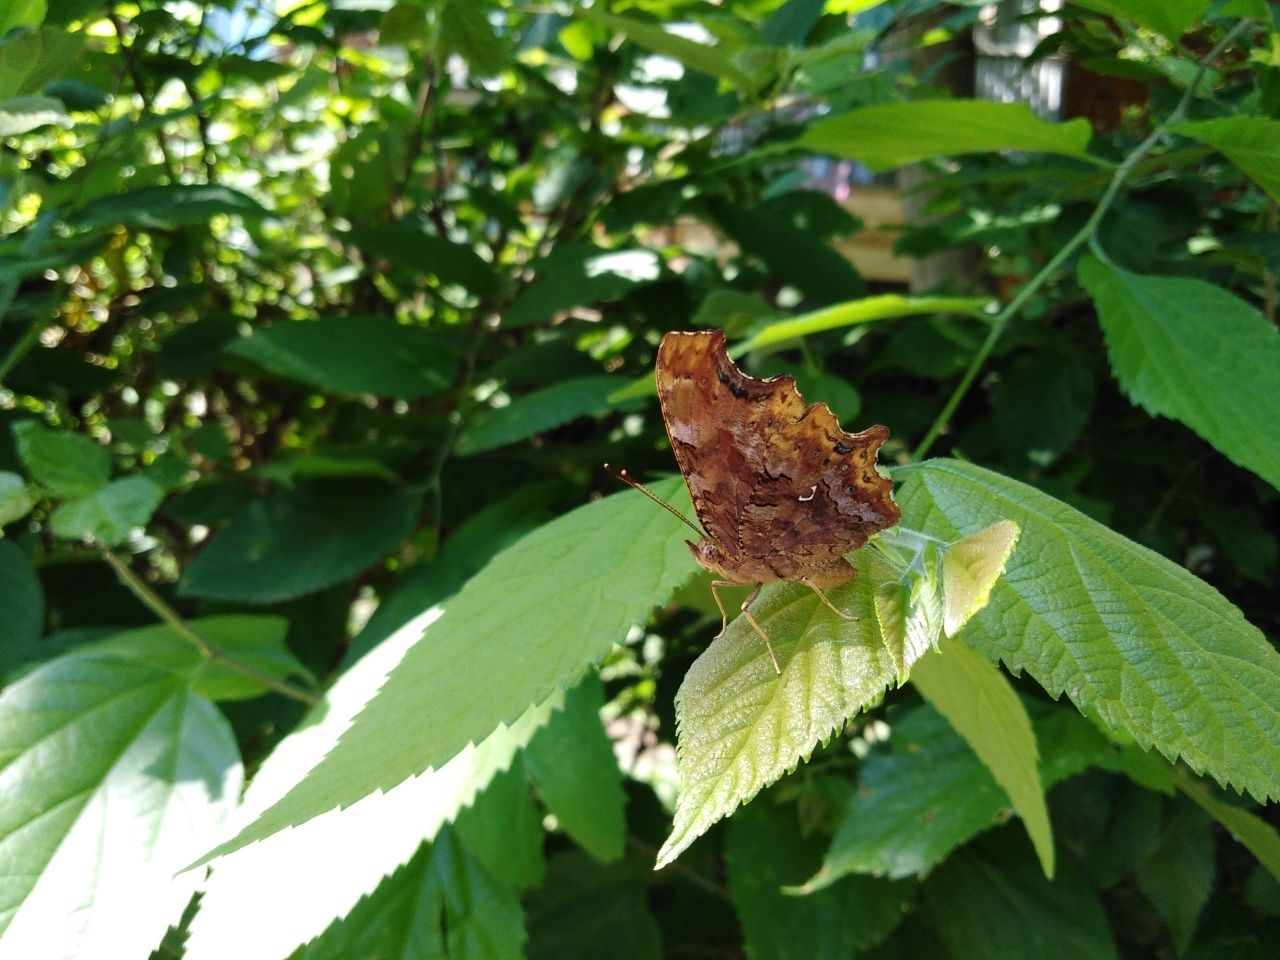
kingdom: Animalia
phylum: Arthropoda
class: Insecta
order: Lepidoptera
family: Nymphalidae
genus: Polygonia
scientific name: Polygonia c-album
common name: Comma
